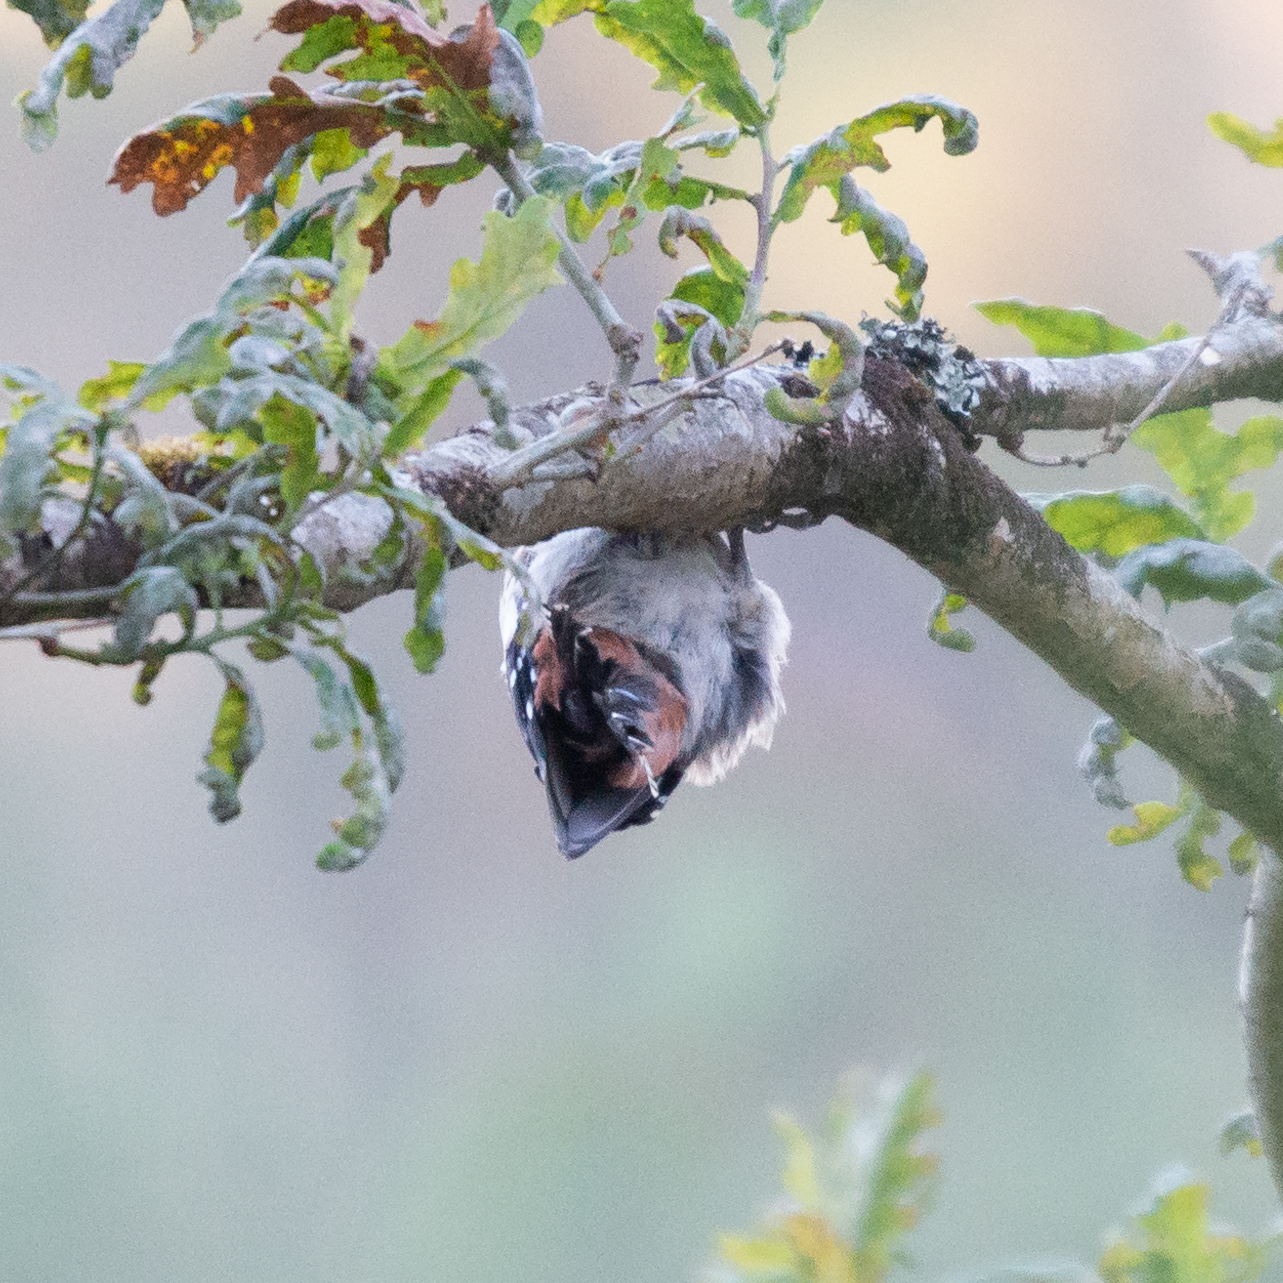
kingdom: Animalia
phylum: Chordata
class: Aves
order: Piciformes
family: Picidae
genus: Dendrocopos
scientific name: Dendrocopos major
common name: Great spotted woodpecker
